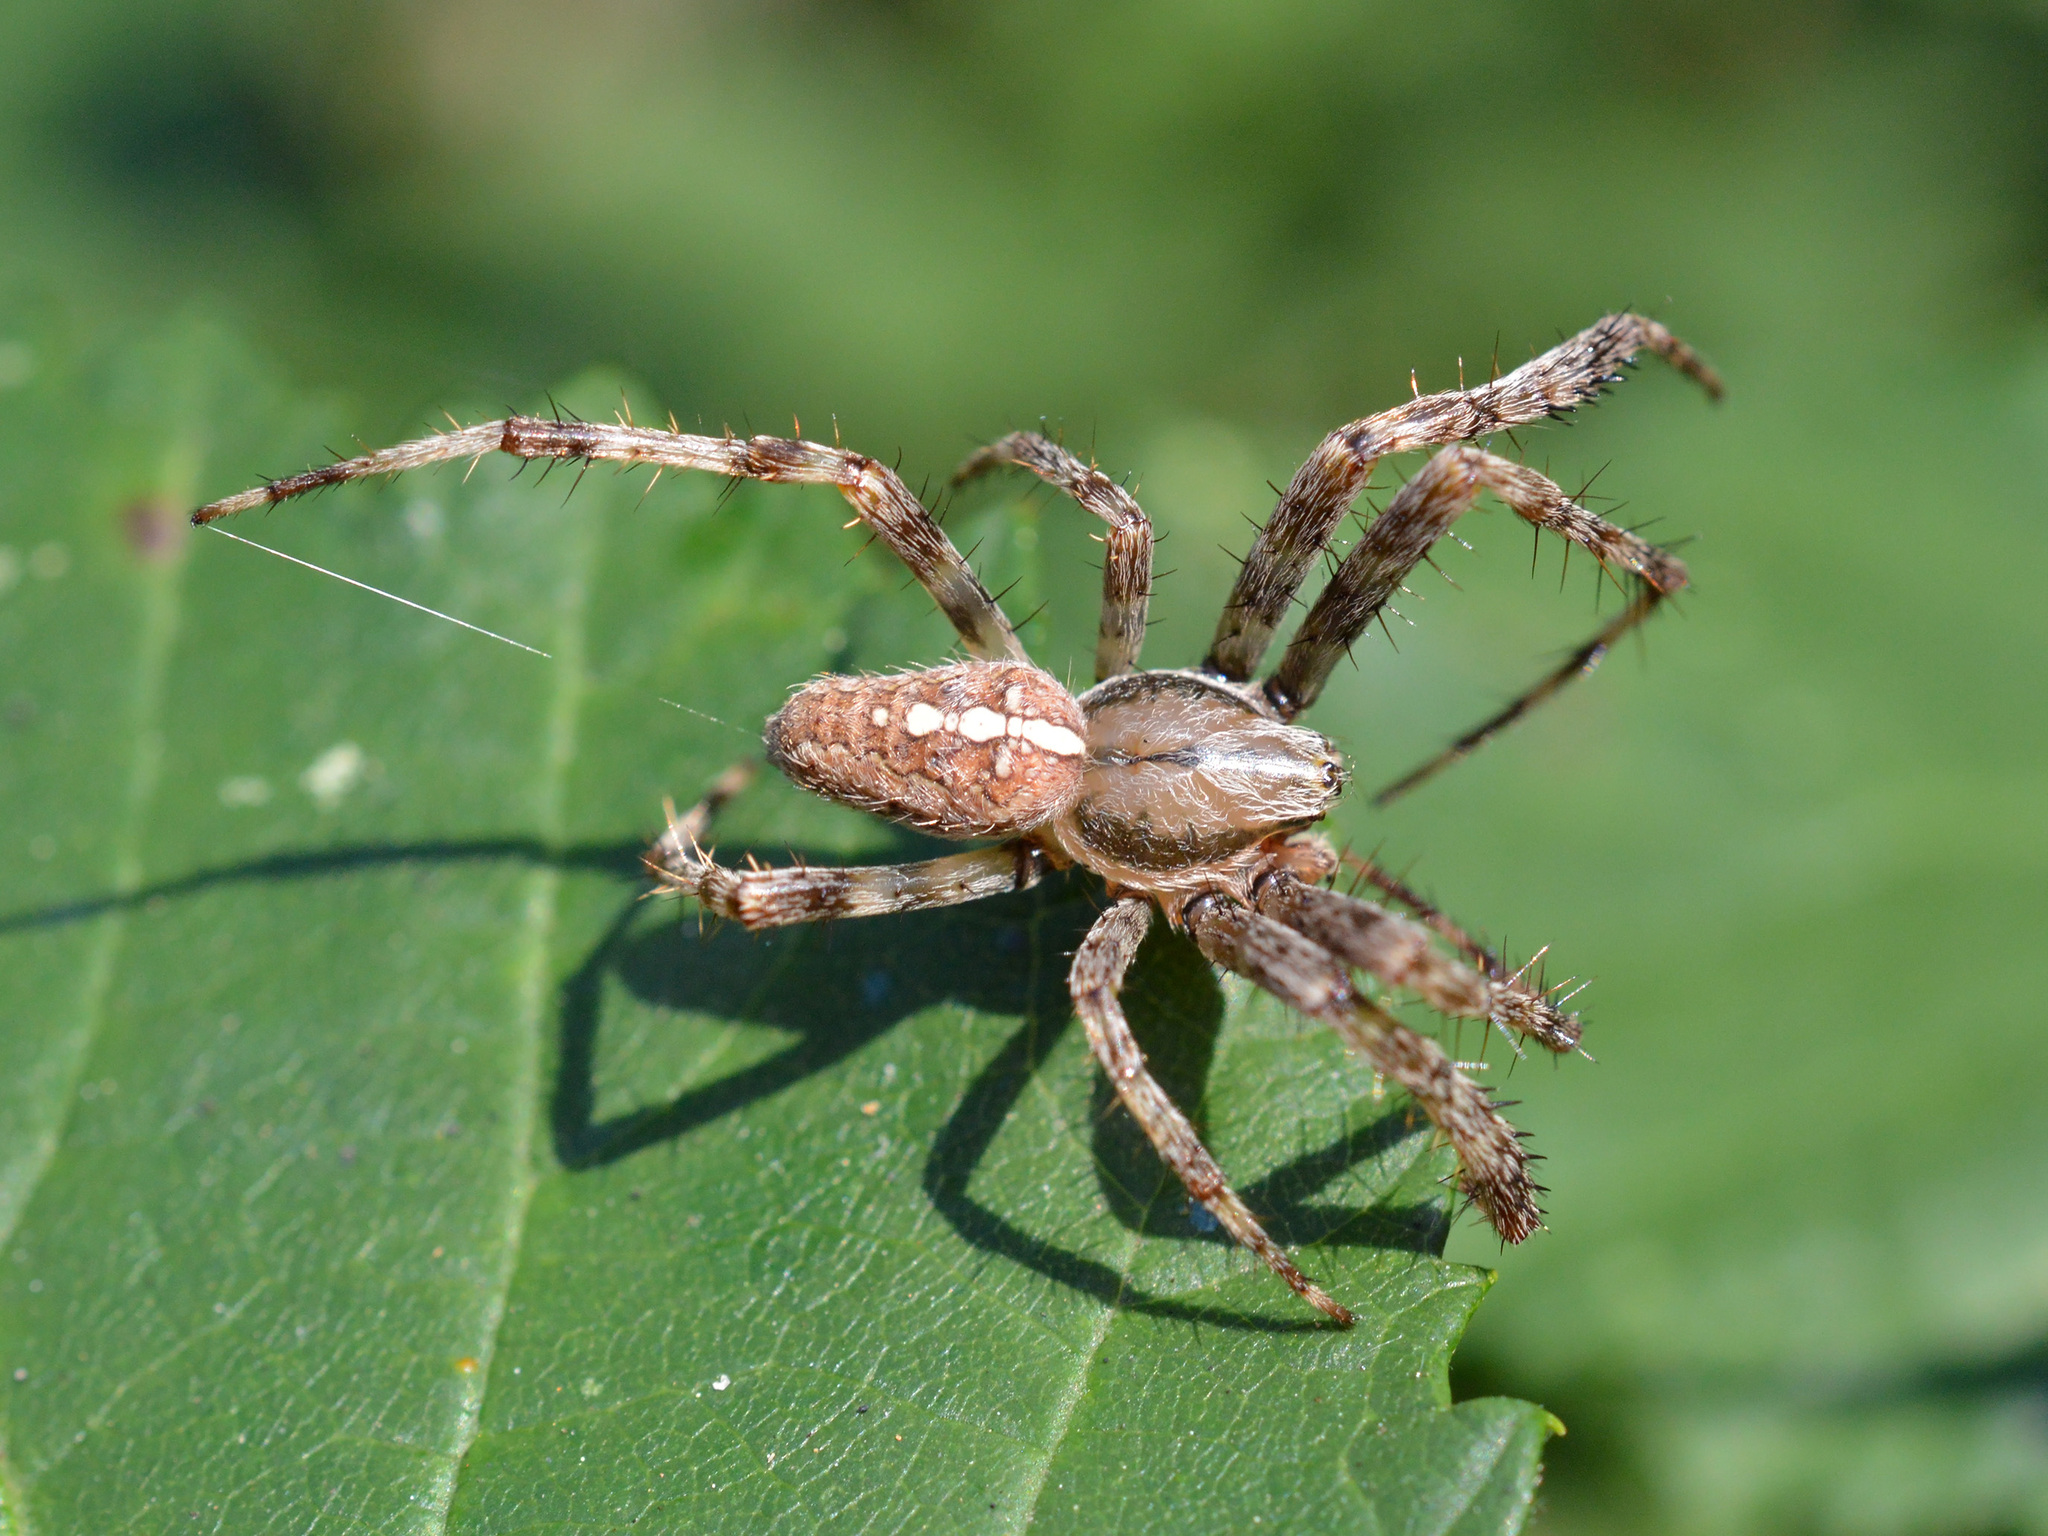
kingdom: Animalia
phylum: Arthropoda
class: Arachnida
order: Araneae
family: Araneidae
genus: Araneus
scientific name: Araneus diadematus
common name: Cross orbweaver
